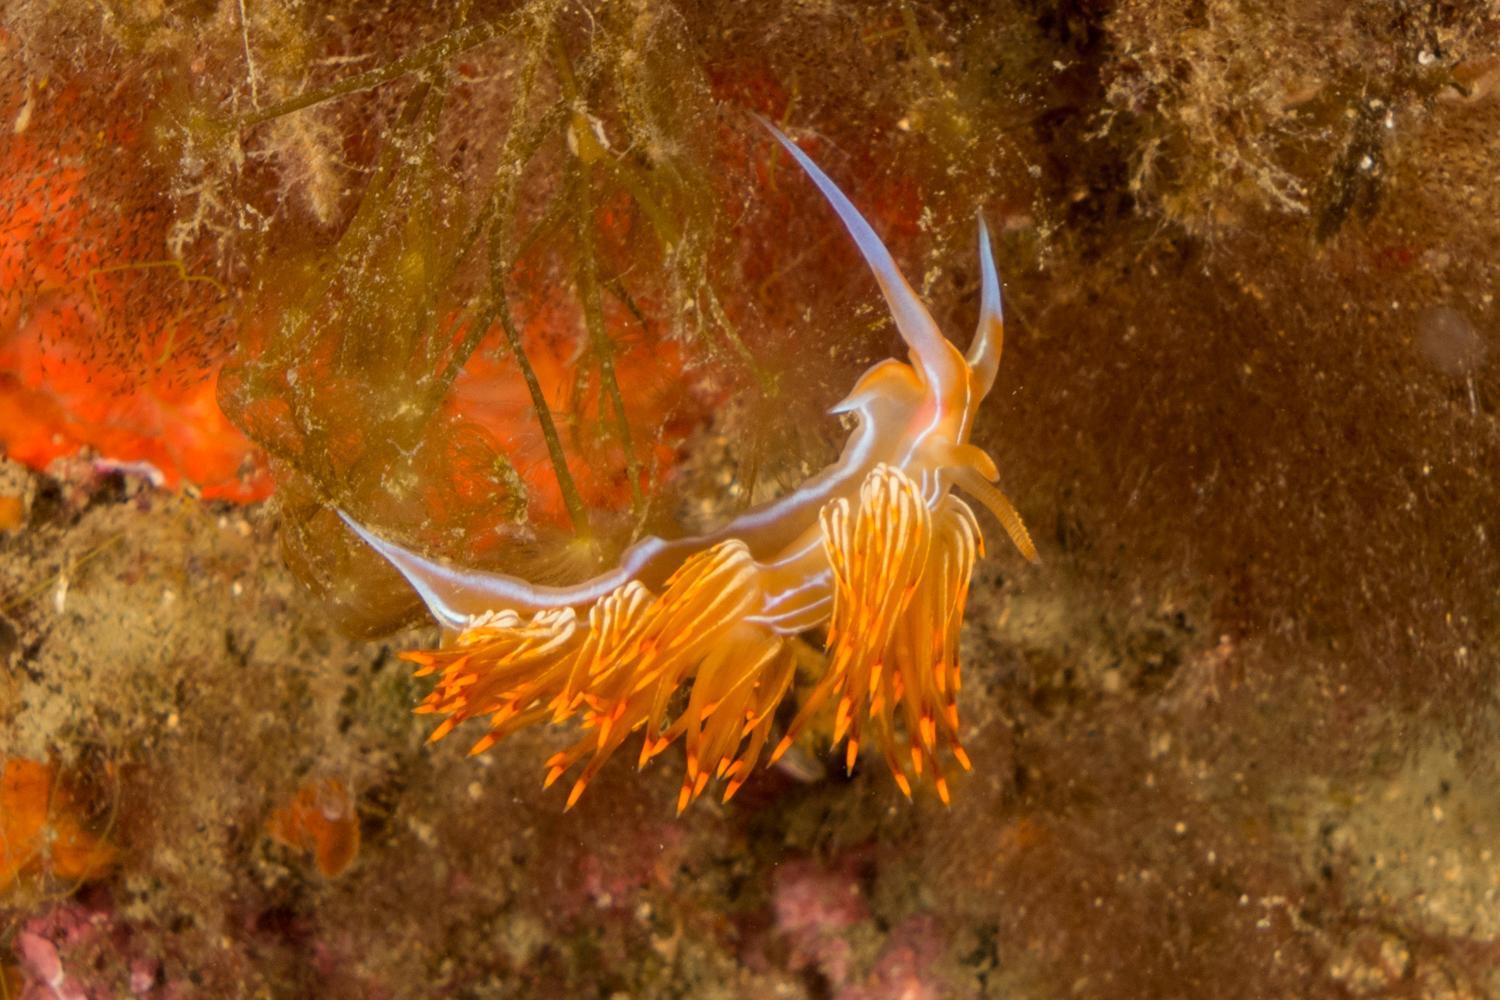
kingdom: Animalia
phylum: Mollusca
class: Gastropoda
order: Nudibranchia
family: Myrrhinidae
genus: Nemesignis
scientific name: Nemesignis banyulensis
